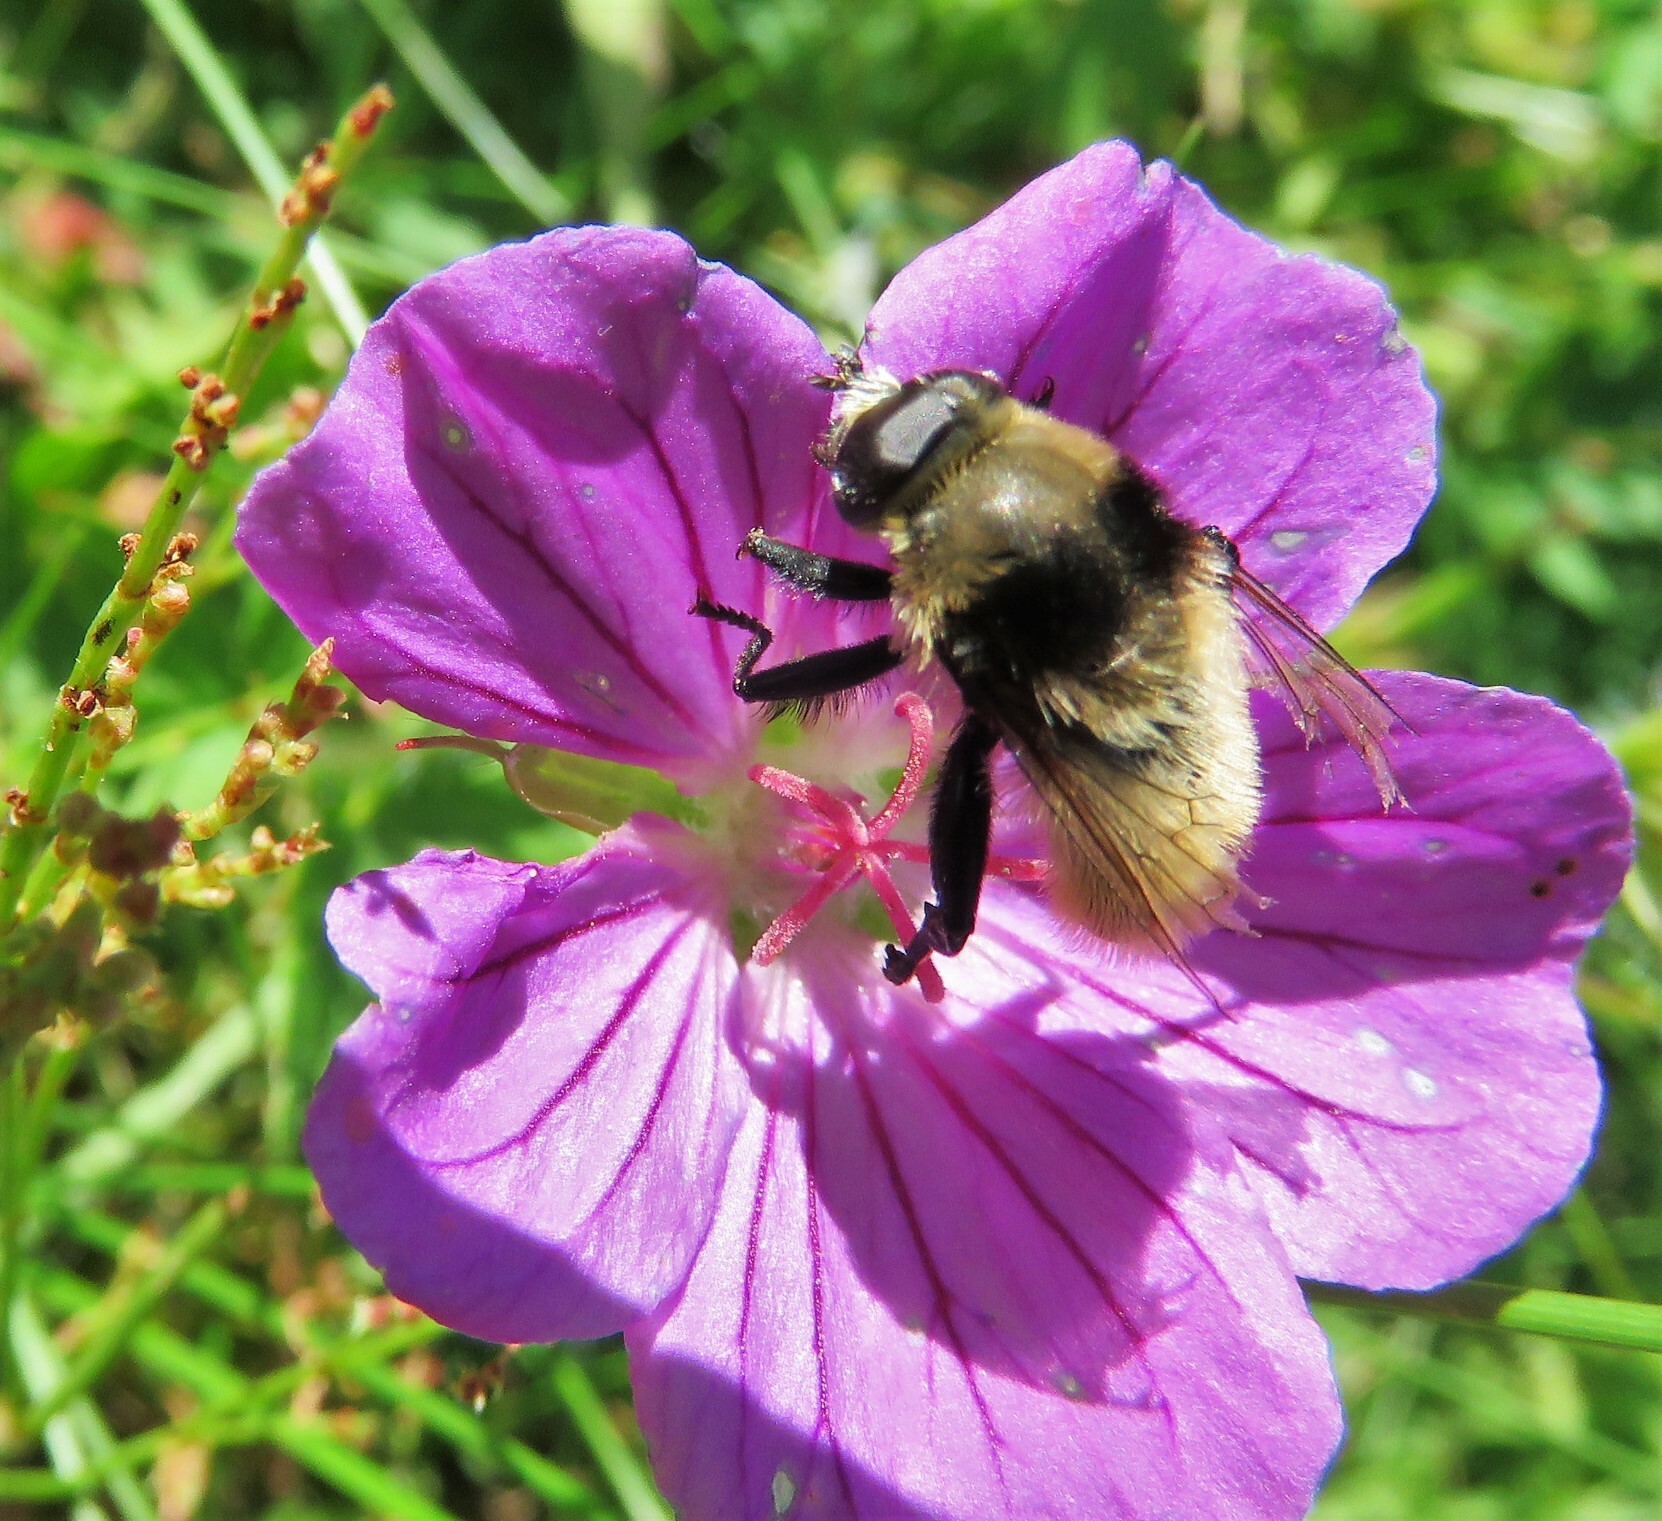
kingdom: Animalia
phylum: Arthropoda
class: Insecta
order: Diptera
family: Syrphidae
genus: Merodon
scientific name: Merodon equestris
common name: Greater bulb-fly
